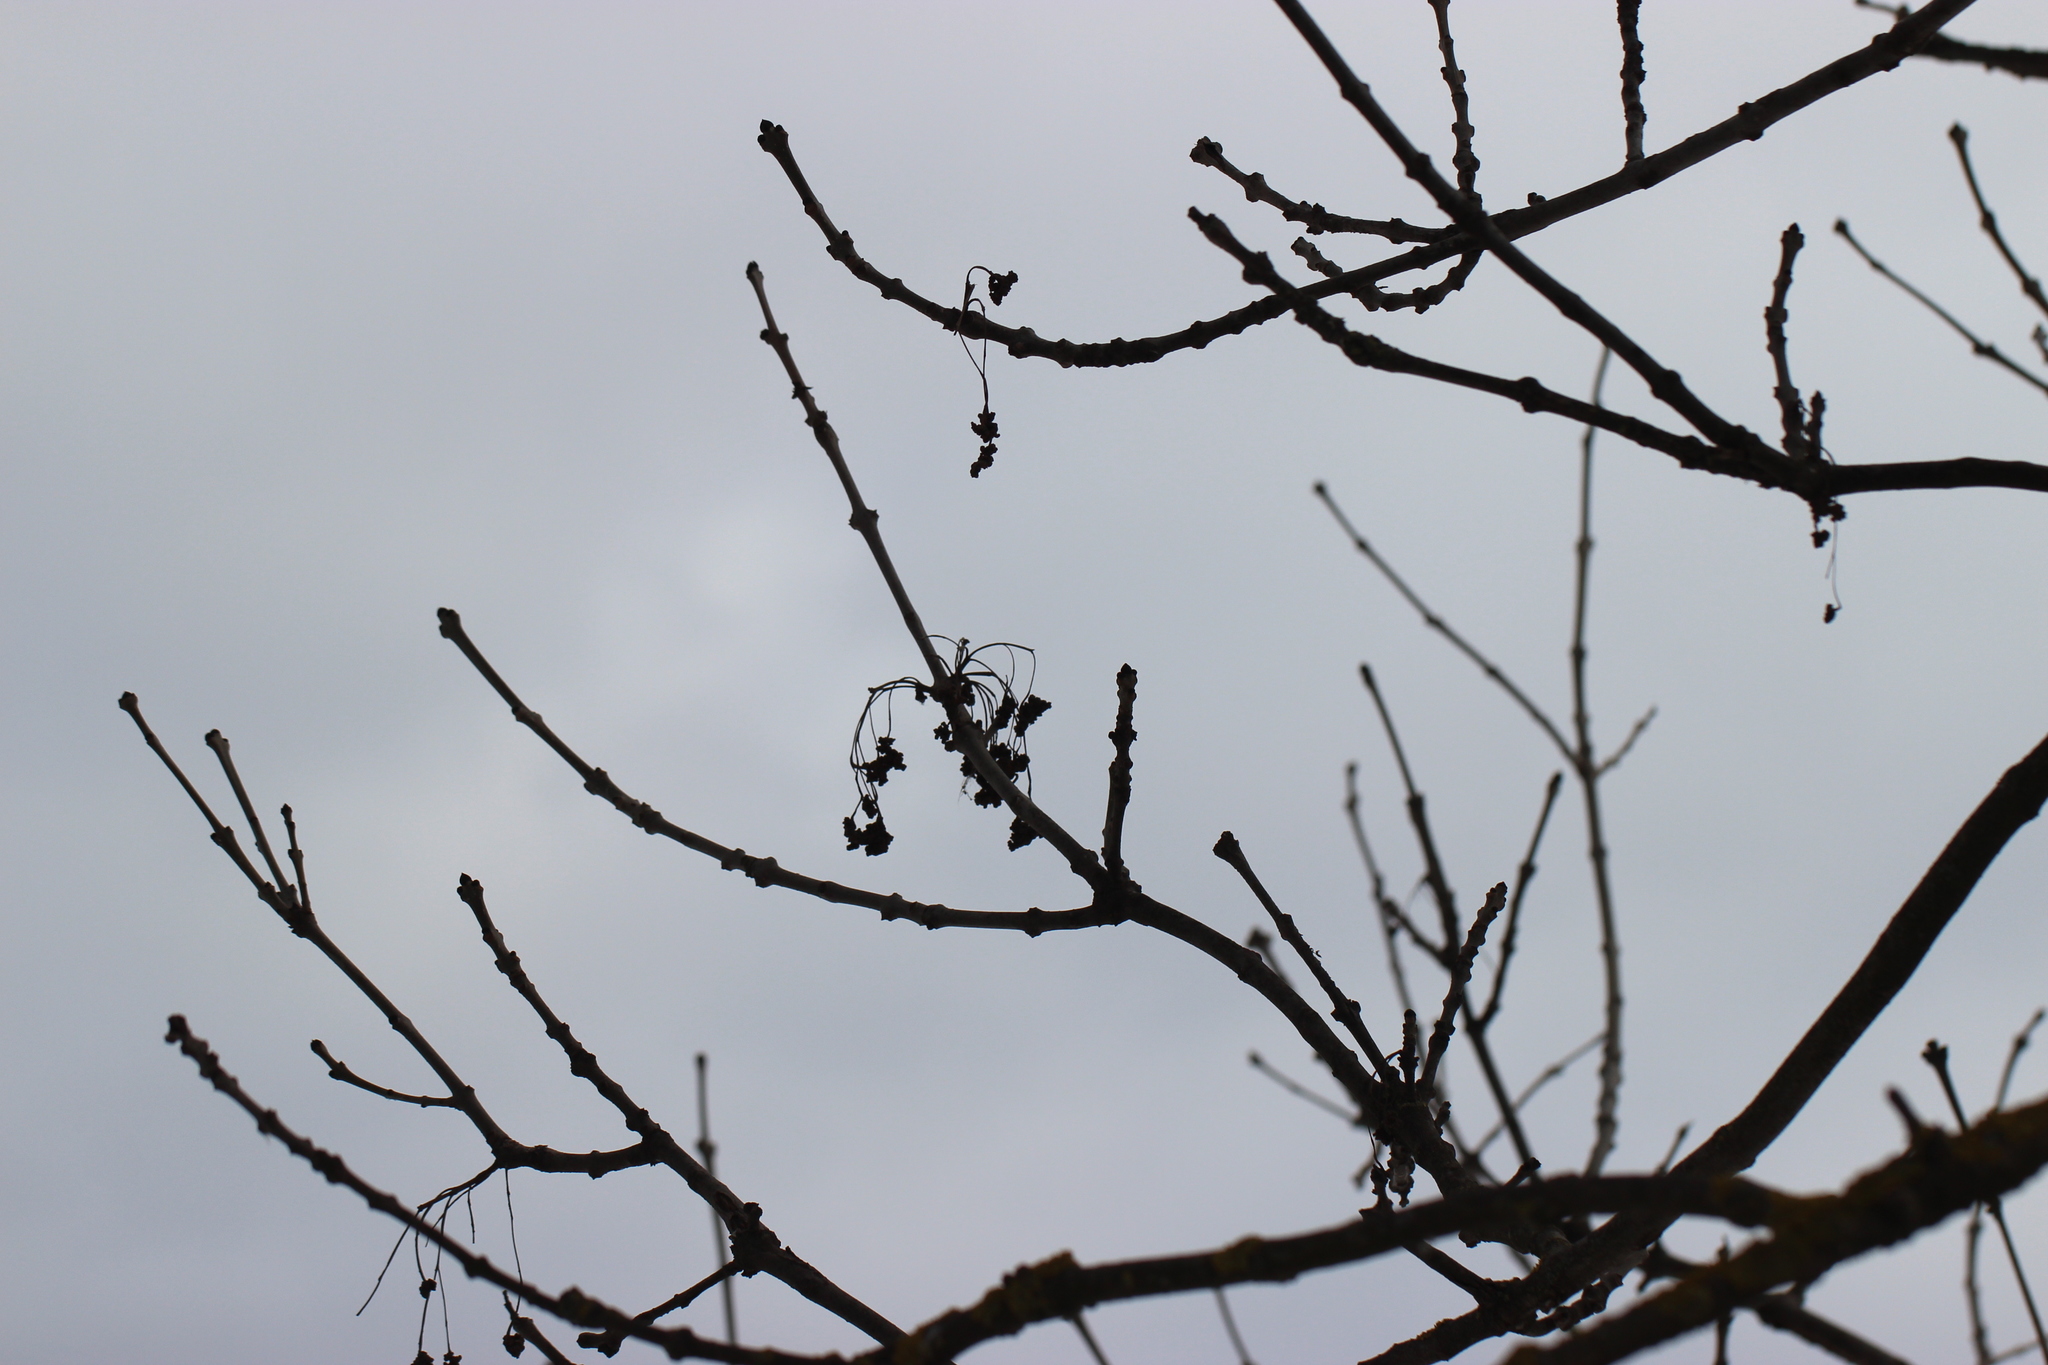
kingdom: Plantae
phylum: Tracheophyta
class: Magnoliopsida
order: Lamiales
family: Oleaceae
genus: Fraxinus
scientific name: Fraxinus excelsior
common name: European ash
